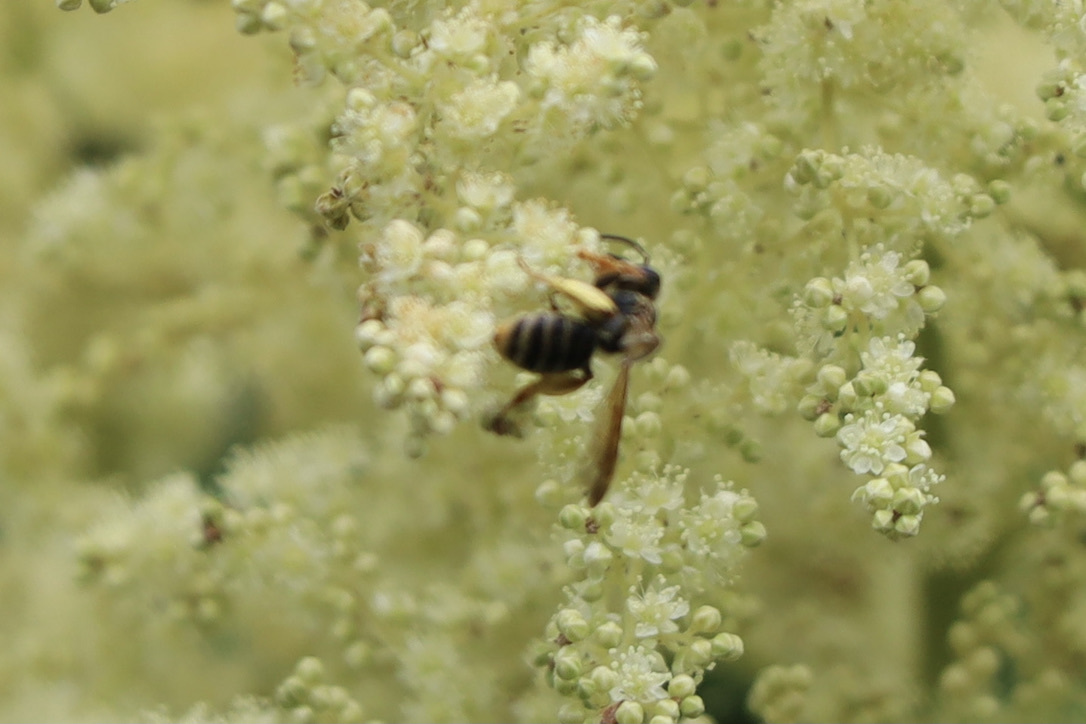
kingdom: Animalia
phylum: Arthropoda
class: Insecta
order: Hymenoptera
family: Andrenidae
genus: Andrena
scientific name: Andrena prunorum
